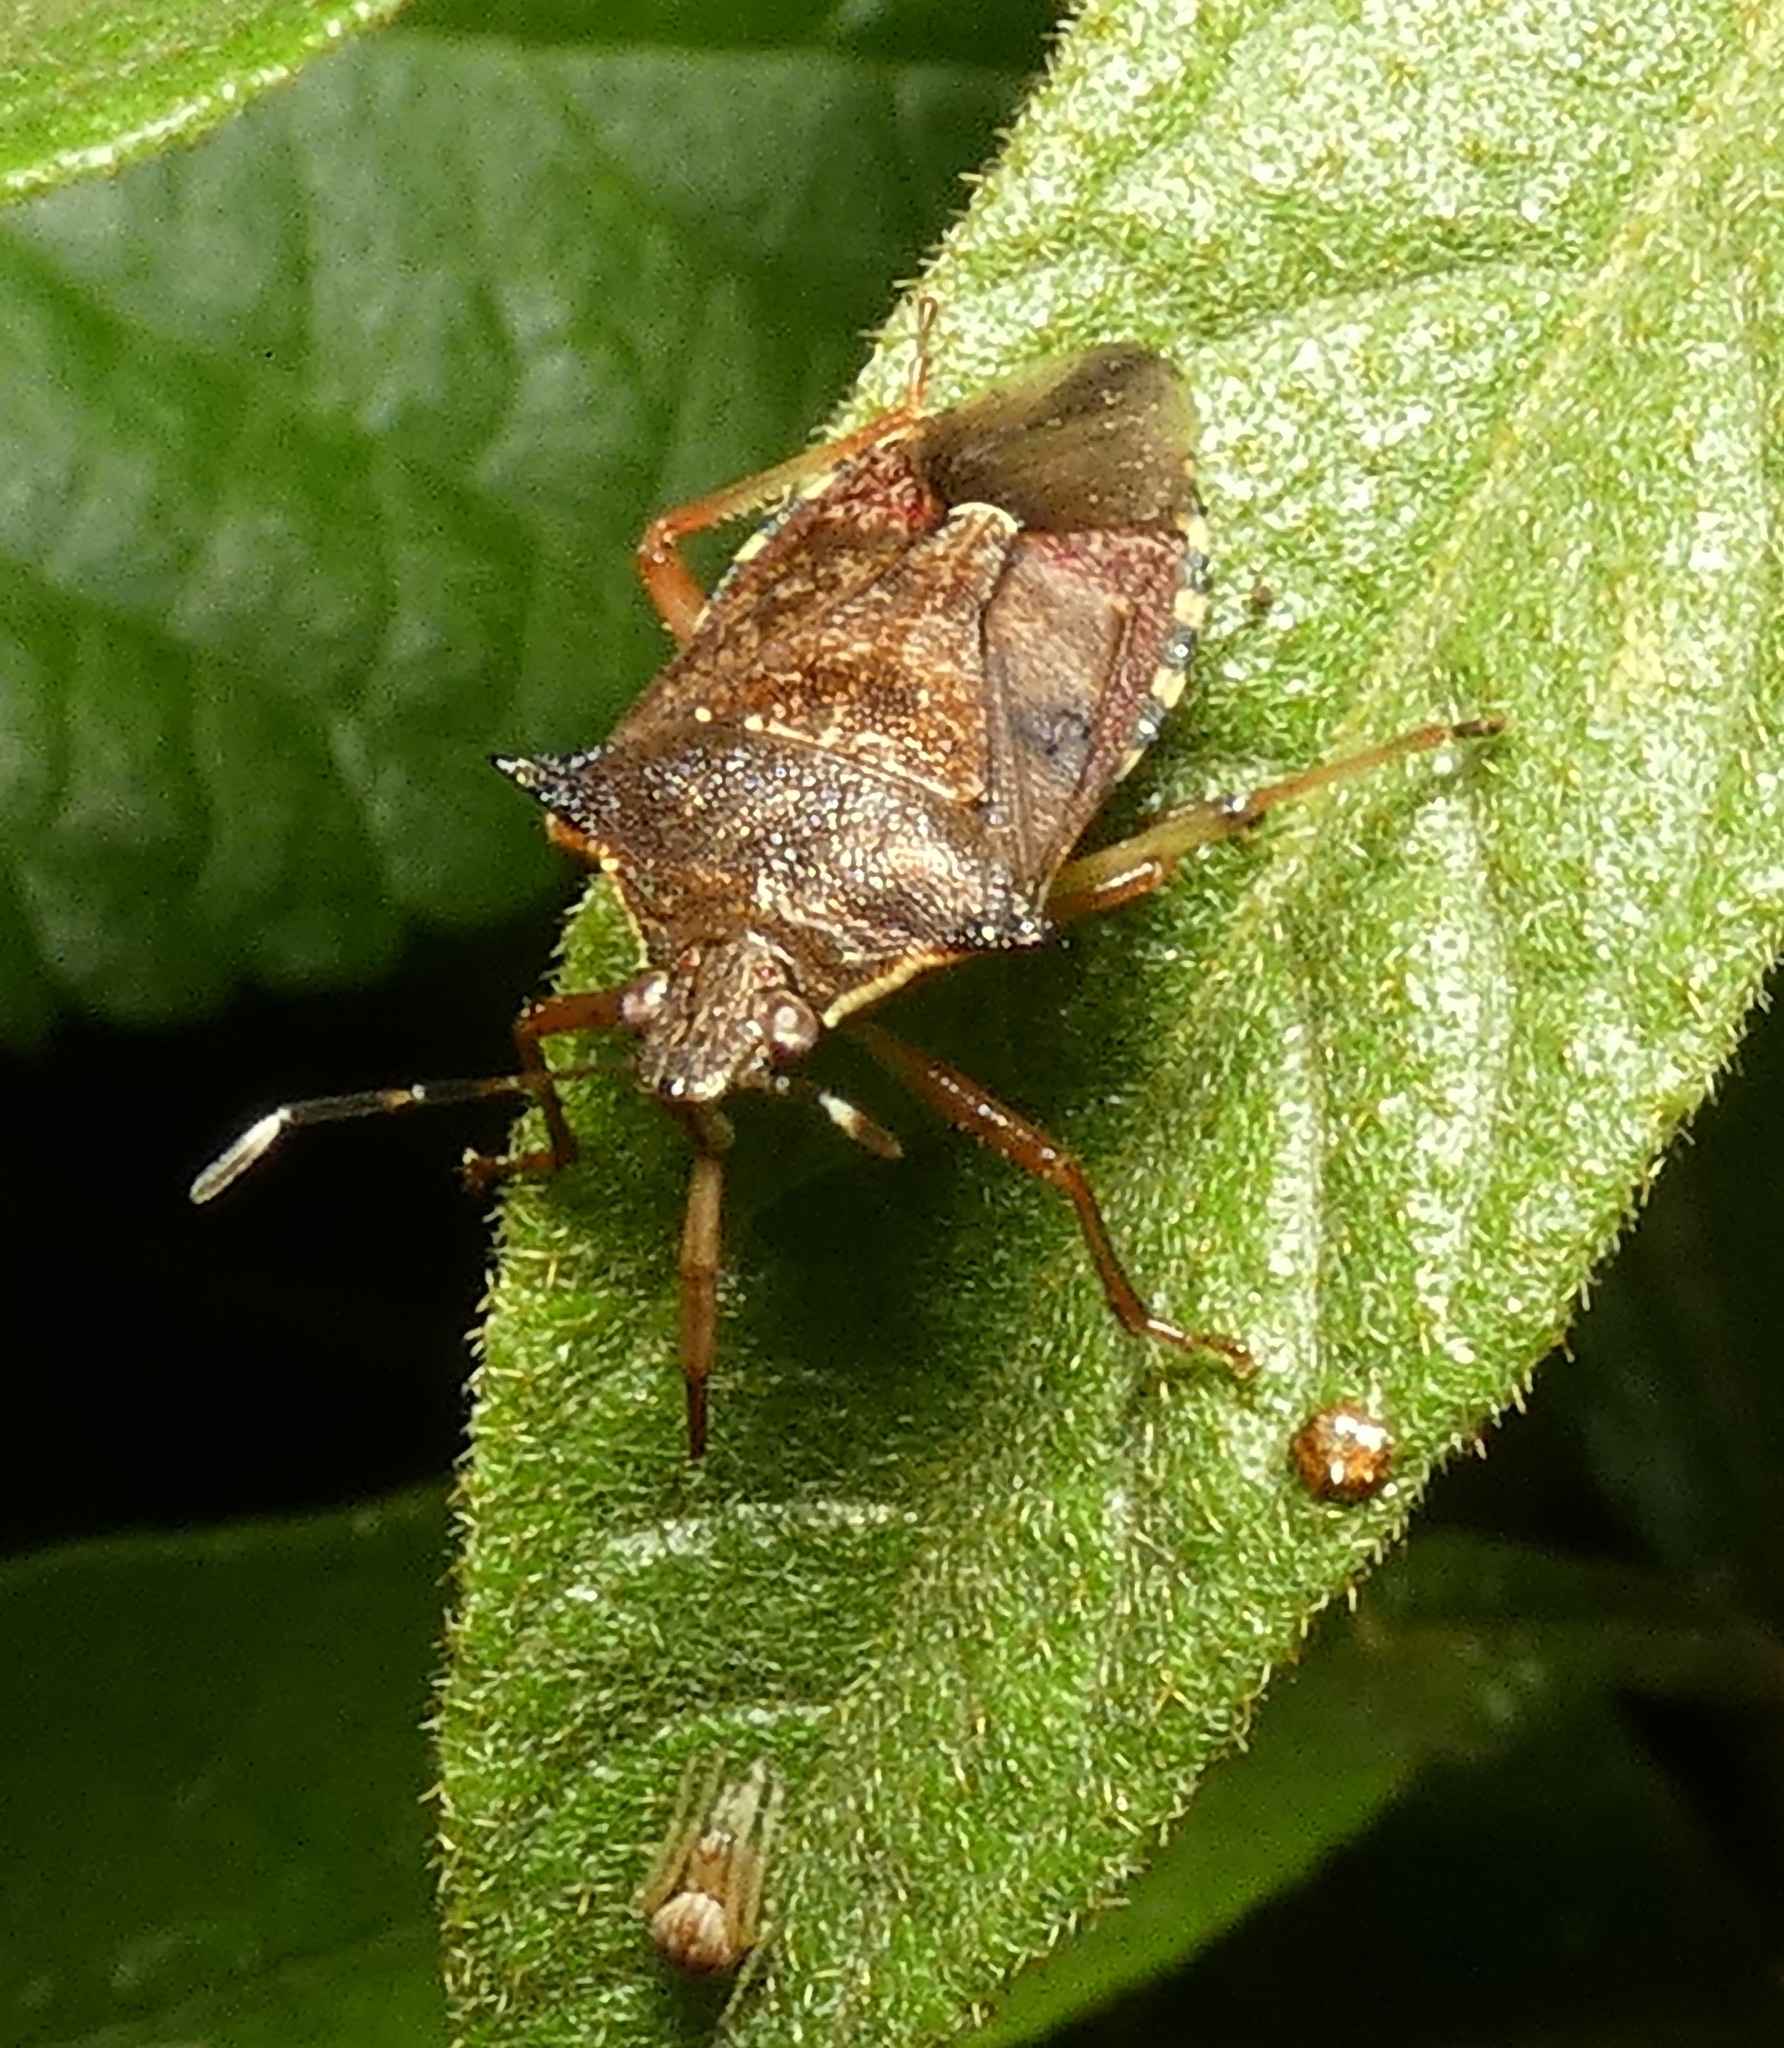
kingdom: Animalia
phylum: Arthropoda
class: Insecta
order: Hemiptera
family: Pentatomidae
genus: Podisus
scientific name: Podisus nigrispinus
